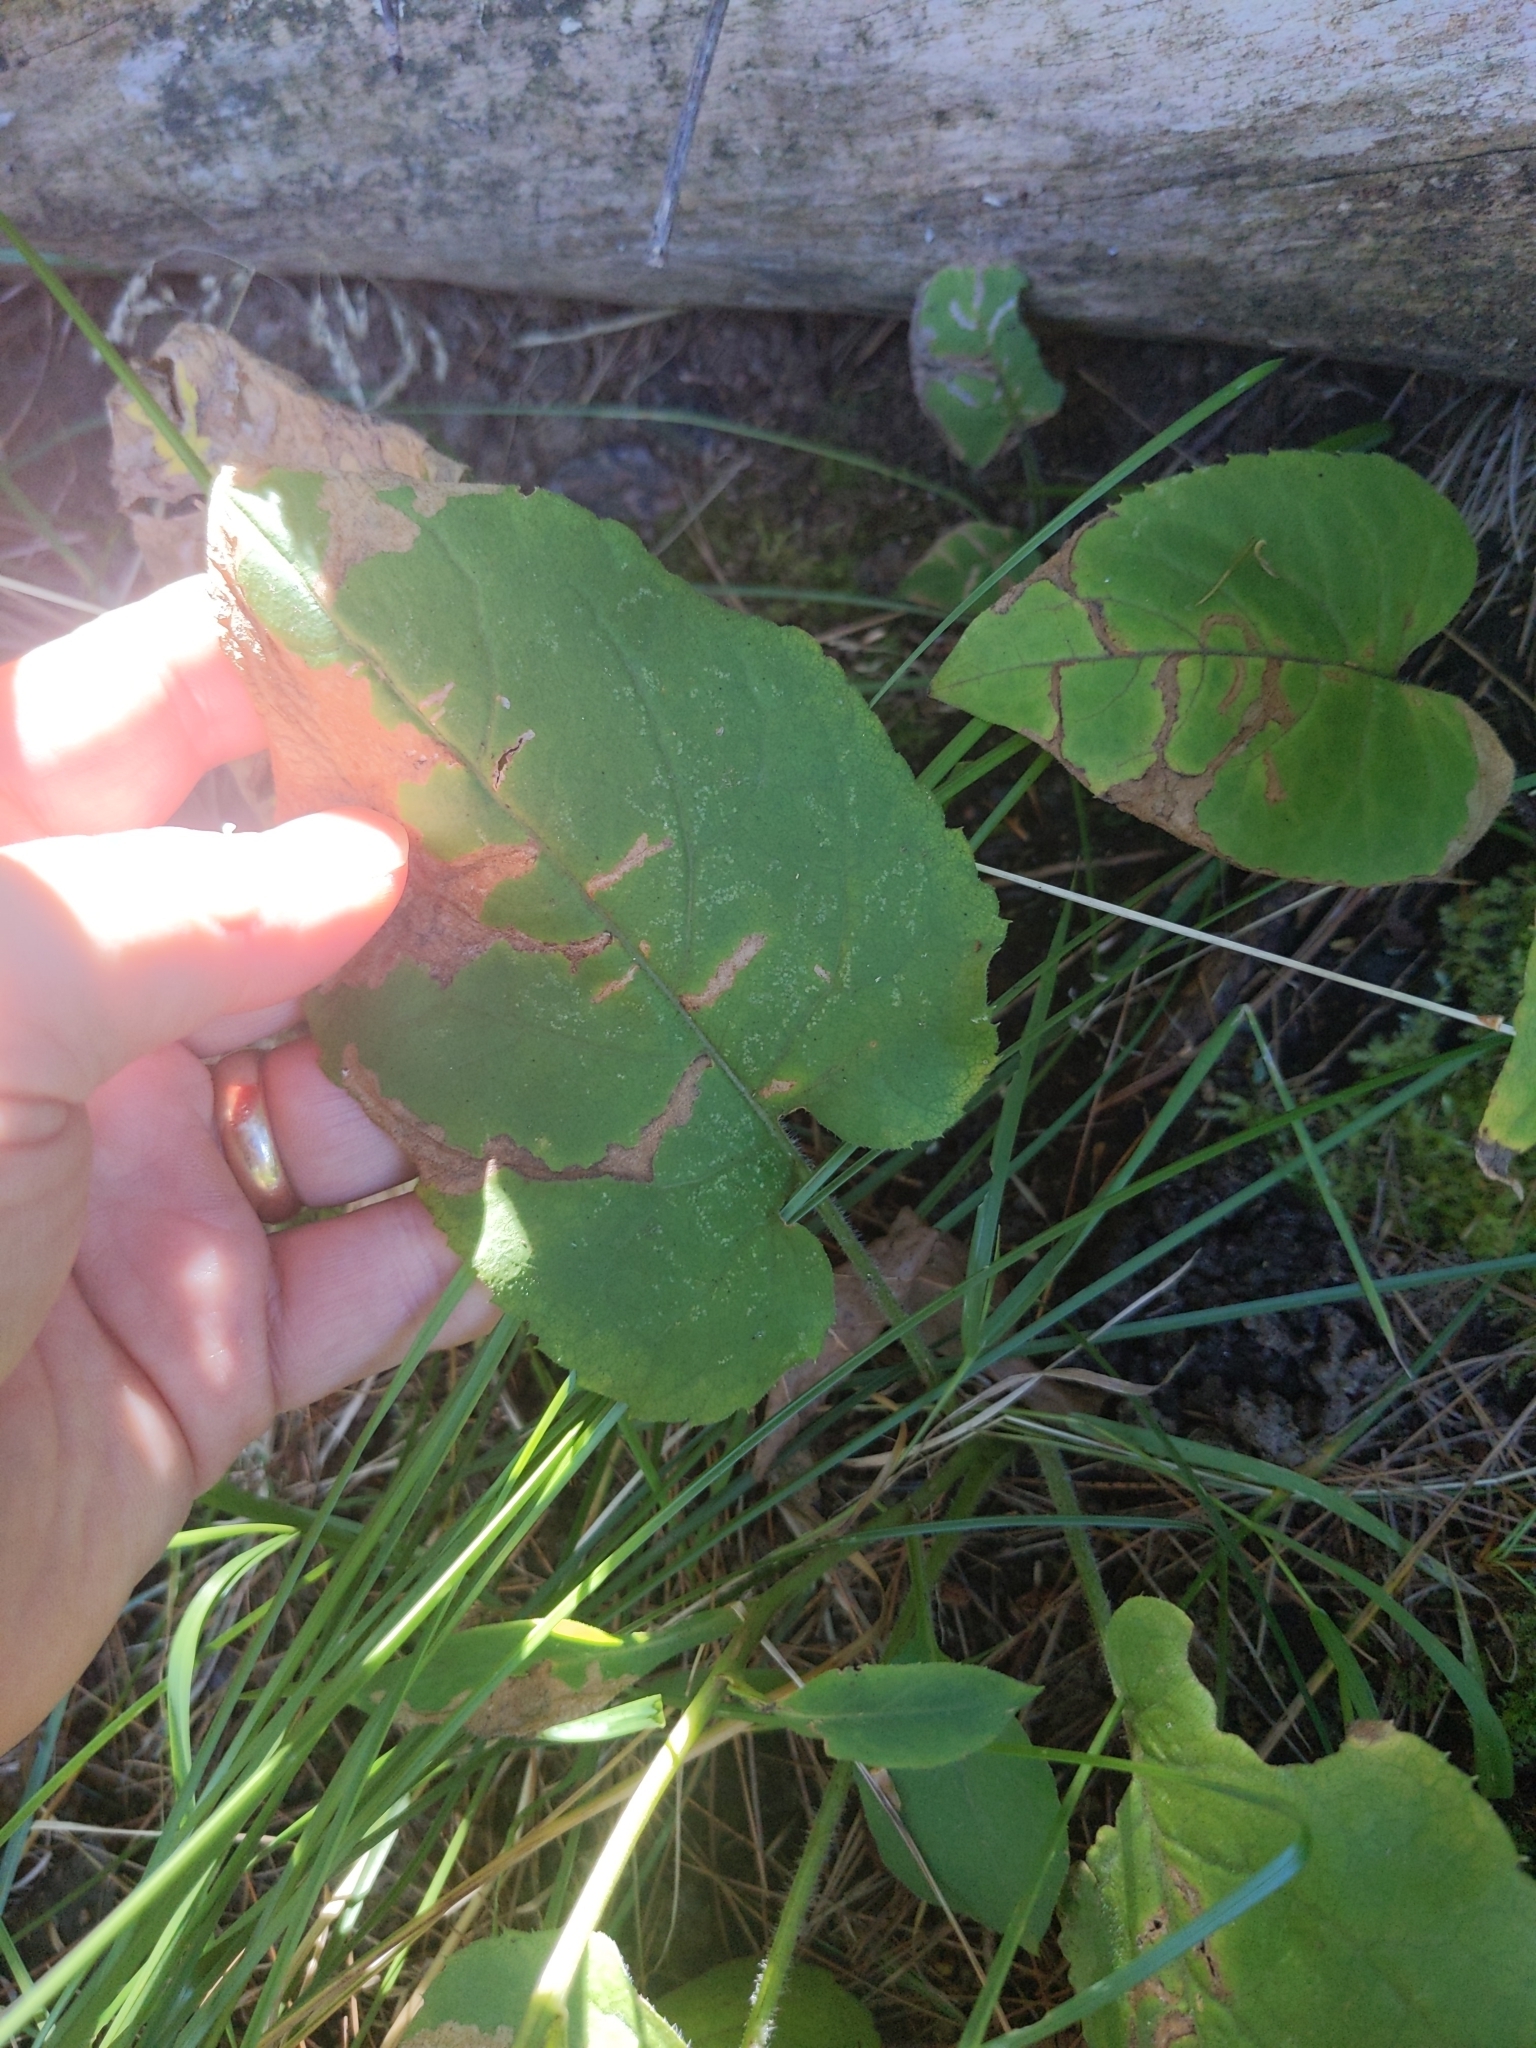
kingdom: Plantae
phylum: Tracheophyta
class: Magnoliopsida
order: Asterales
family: Asteraceae
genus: Eurybia
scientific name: Eurybia macrophylla
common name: Big-leaved aster
